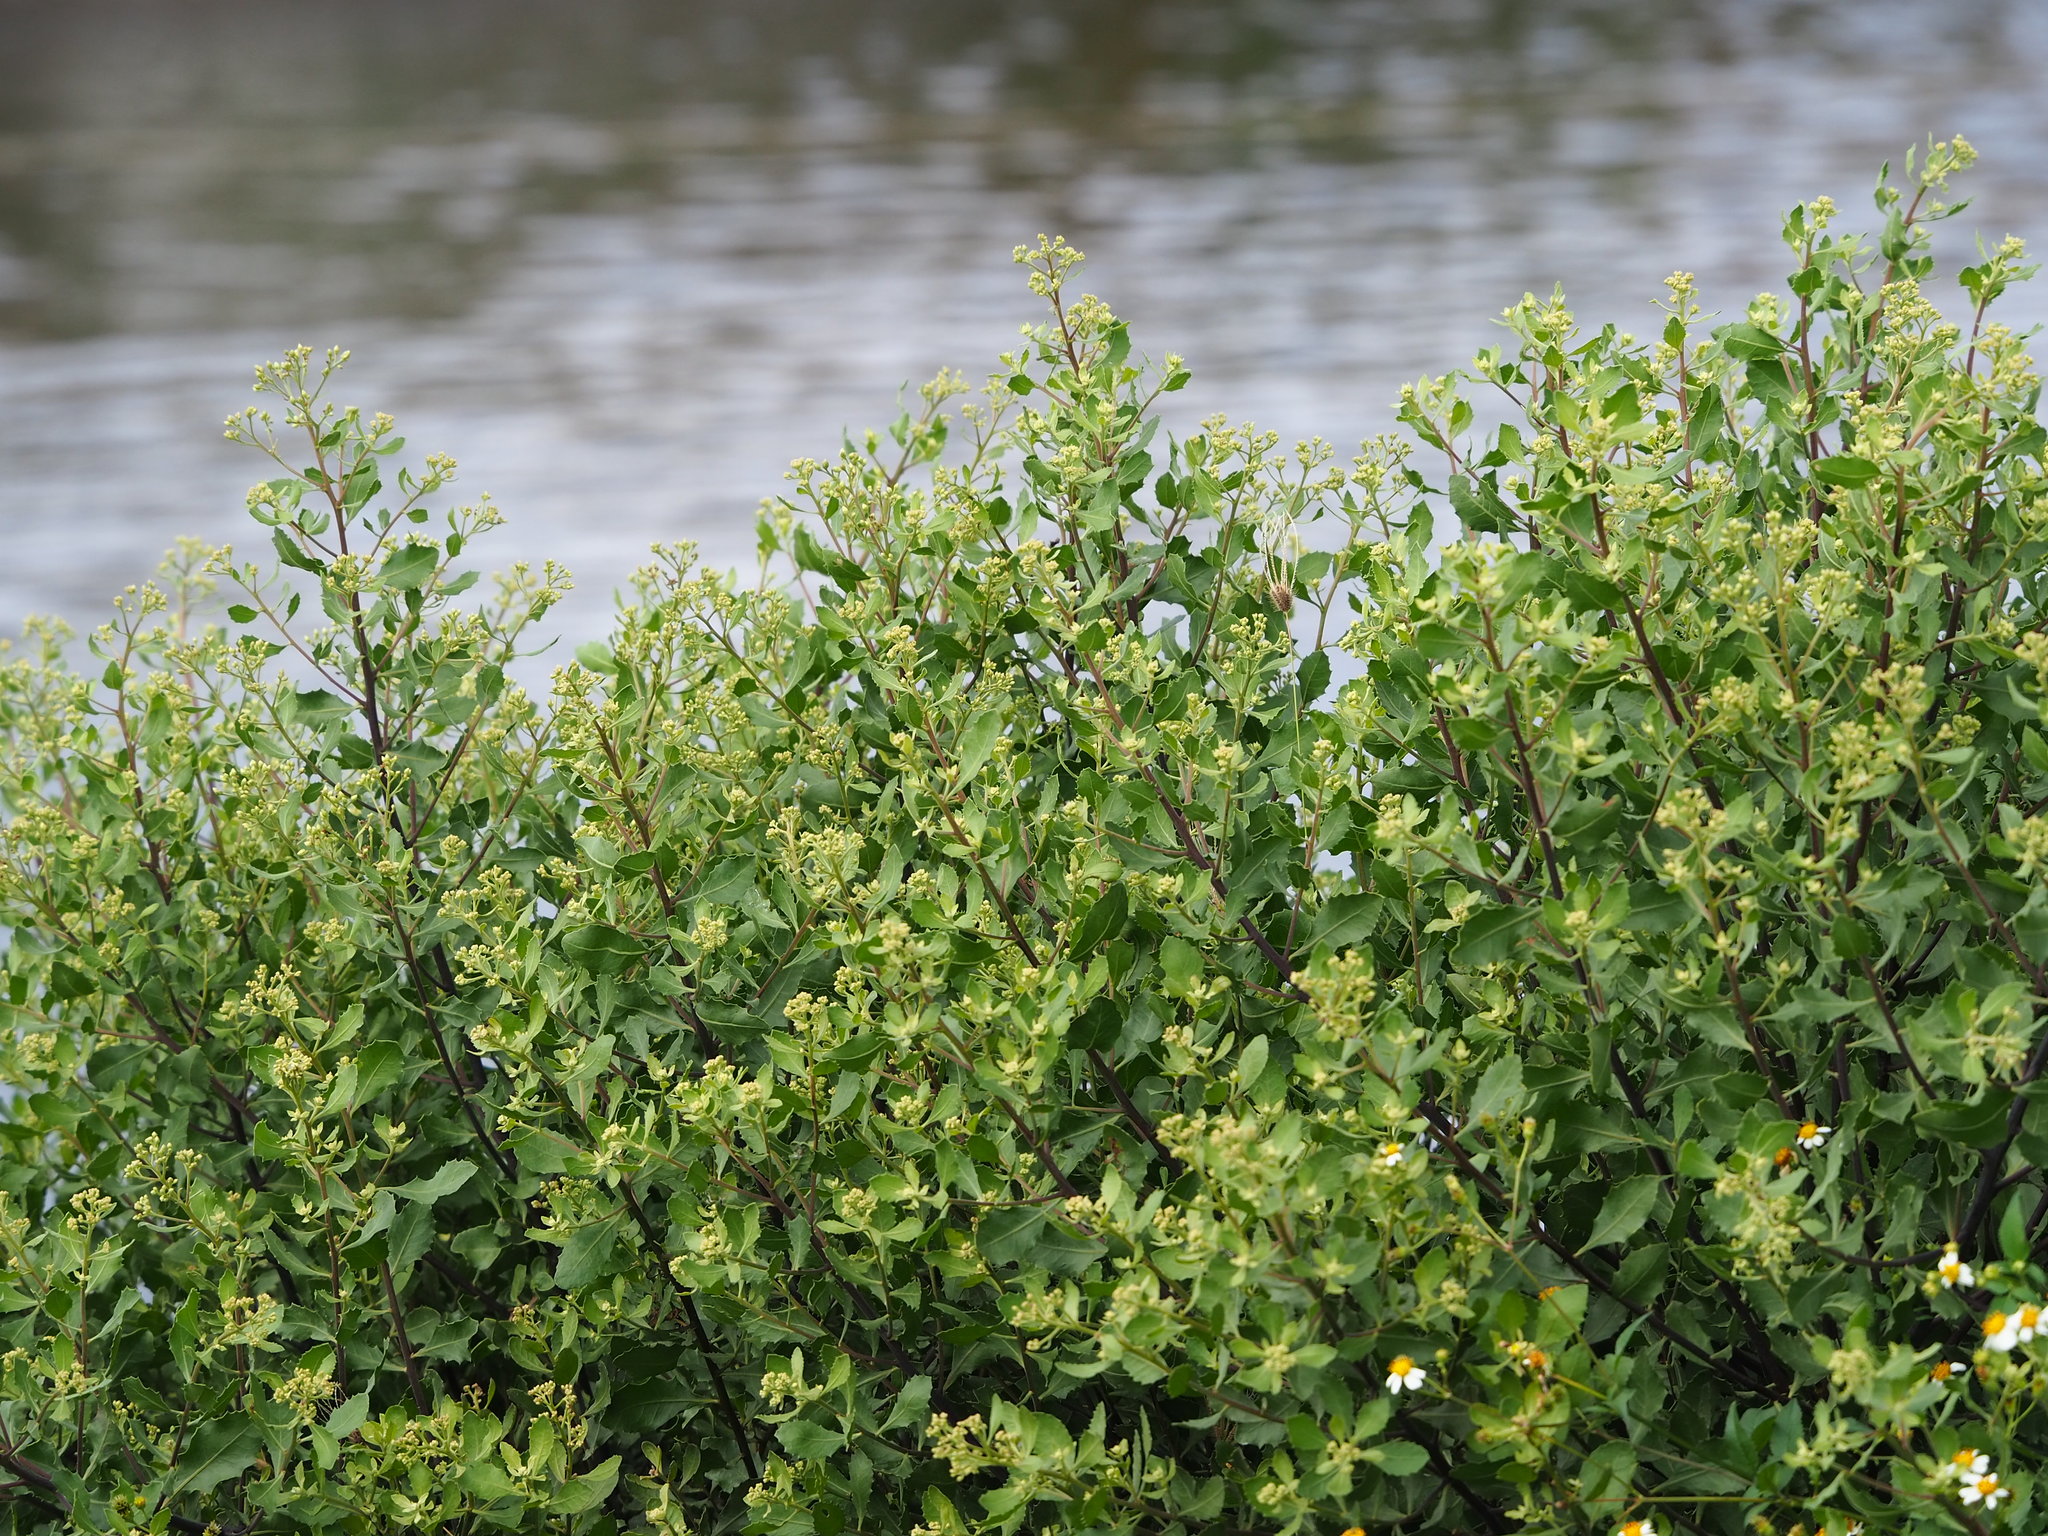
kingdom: Plantae
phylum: Tracheophyta
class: Magnoliopsida
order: Asterales
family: Asteraceae
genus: Pluchea
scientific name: Pluchea indica
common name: Indian fleabane
